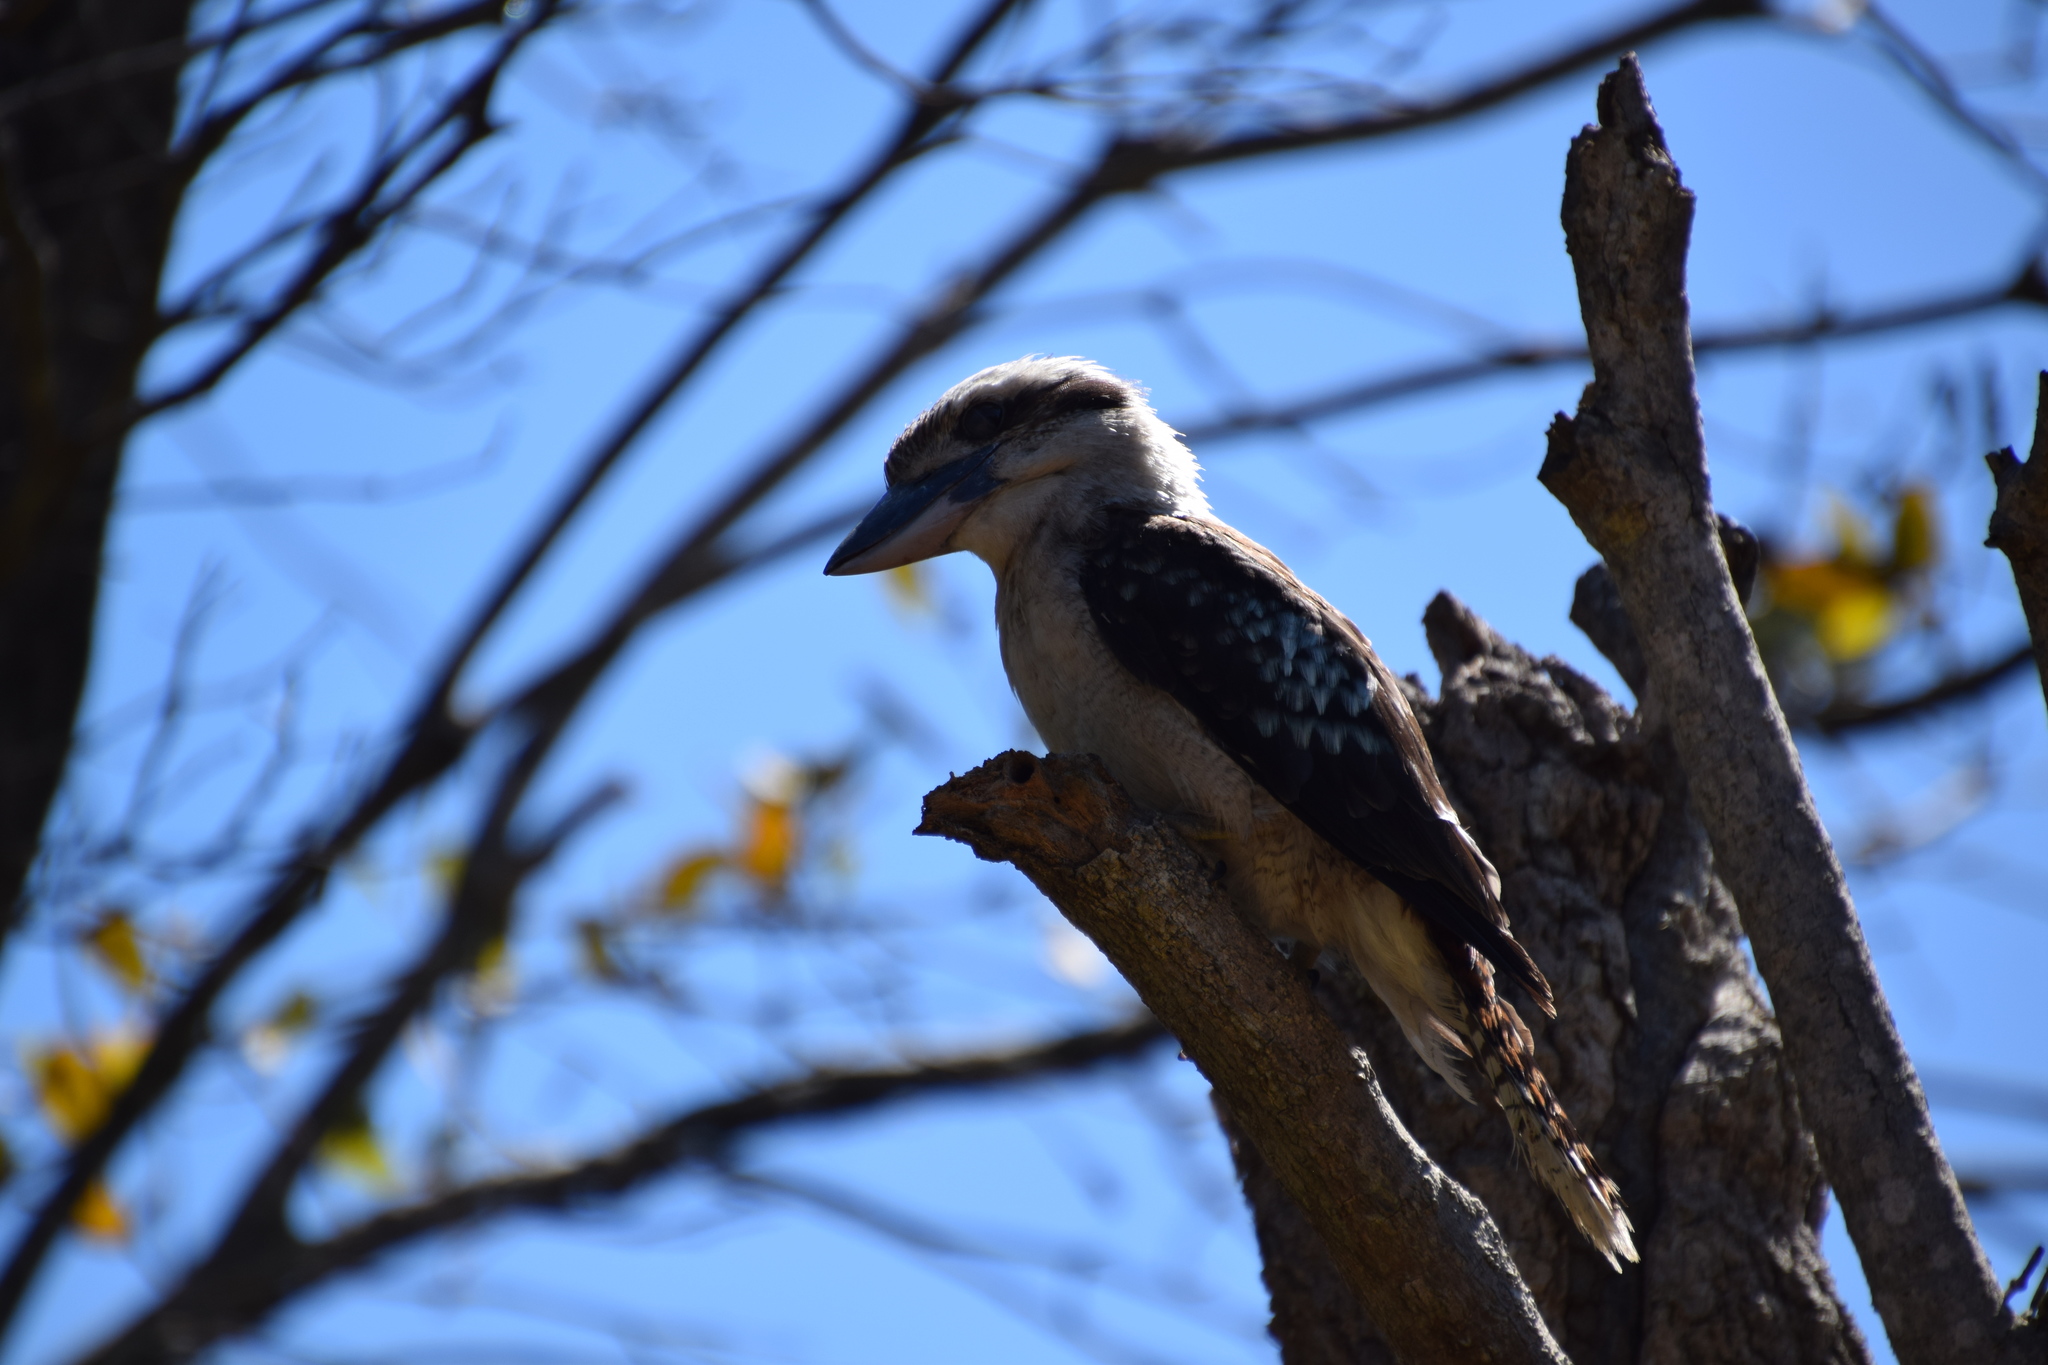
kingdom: Animalia
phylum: Chordata
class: Aves
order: Coraciiformes
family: Alcedinidae
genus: Dacelo
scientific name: Dacelo novaeguineae
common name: Laughing kookaburra
